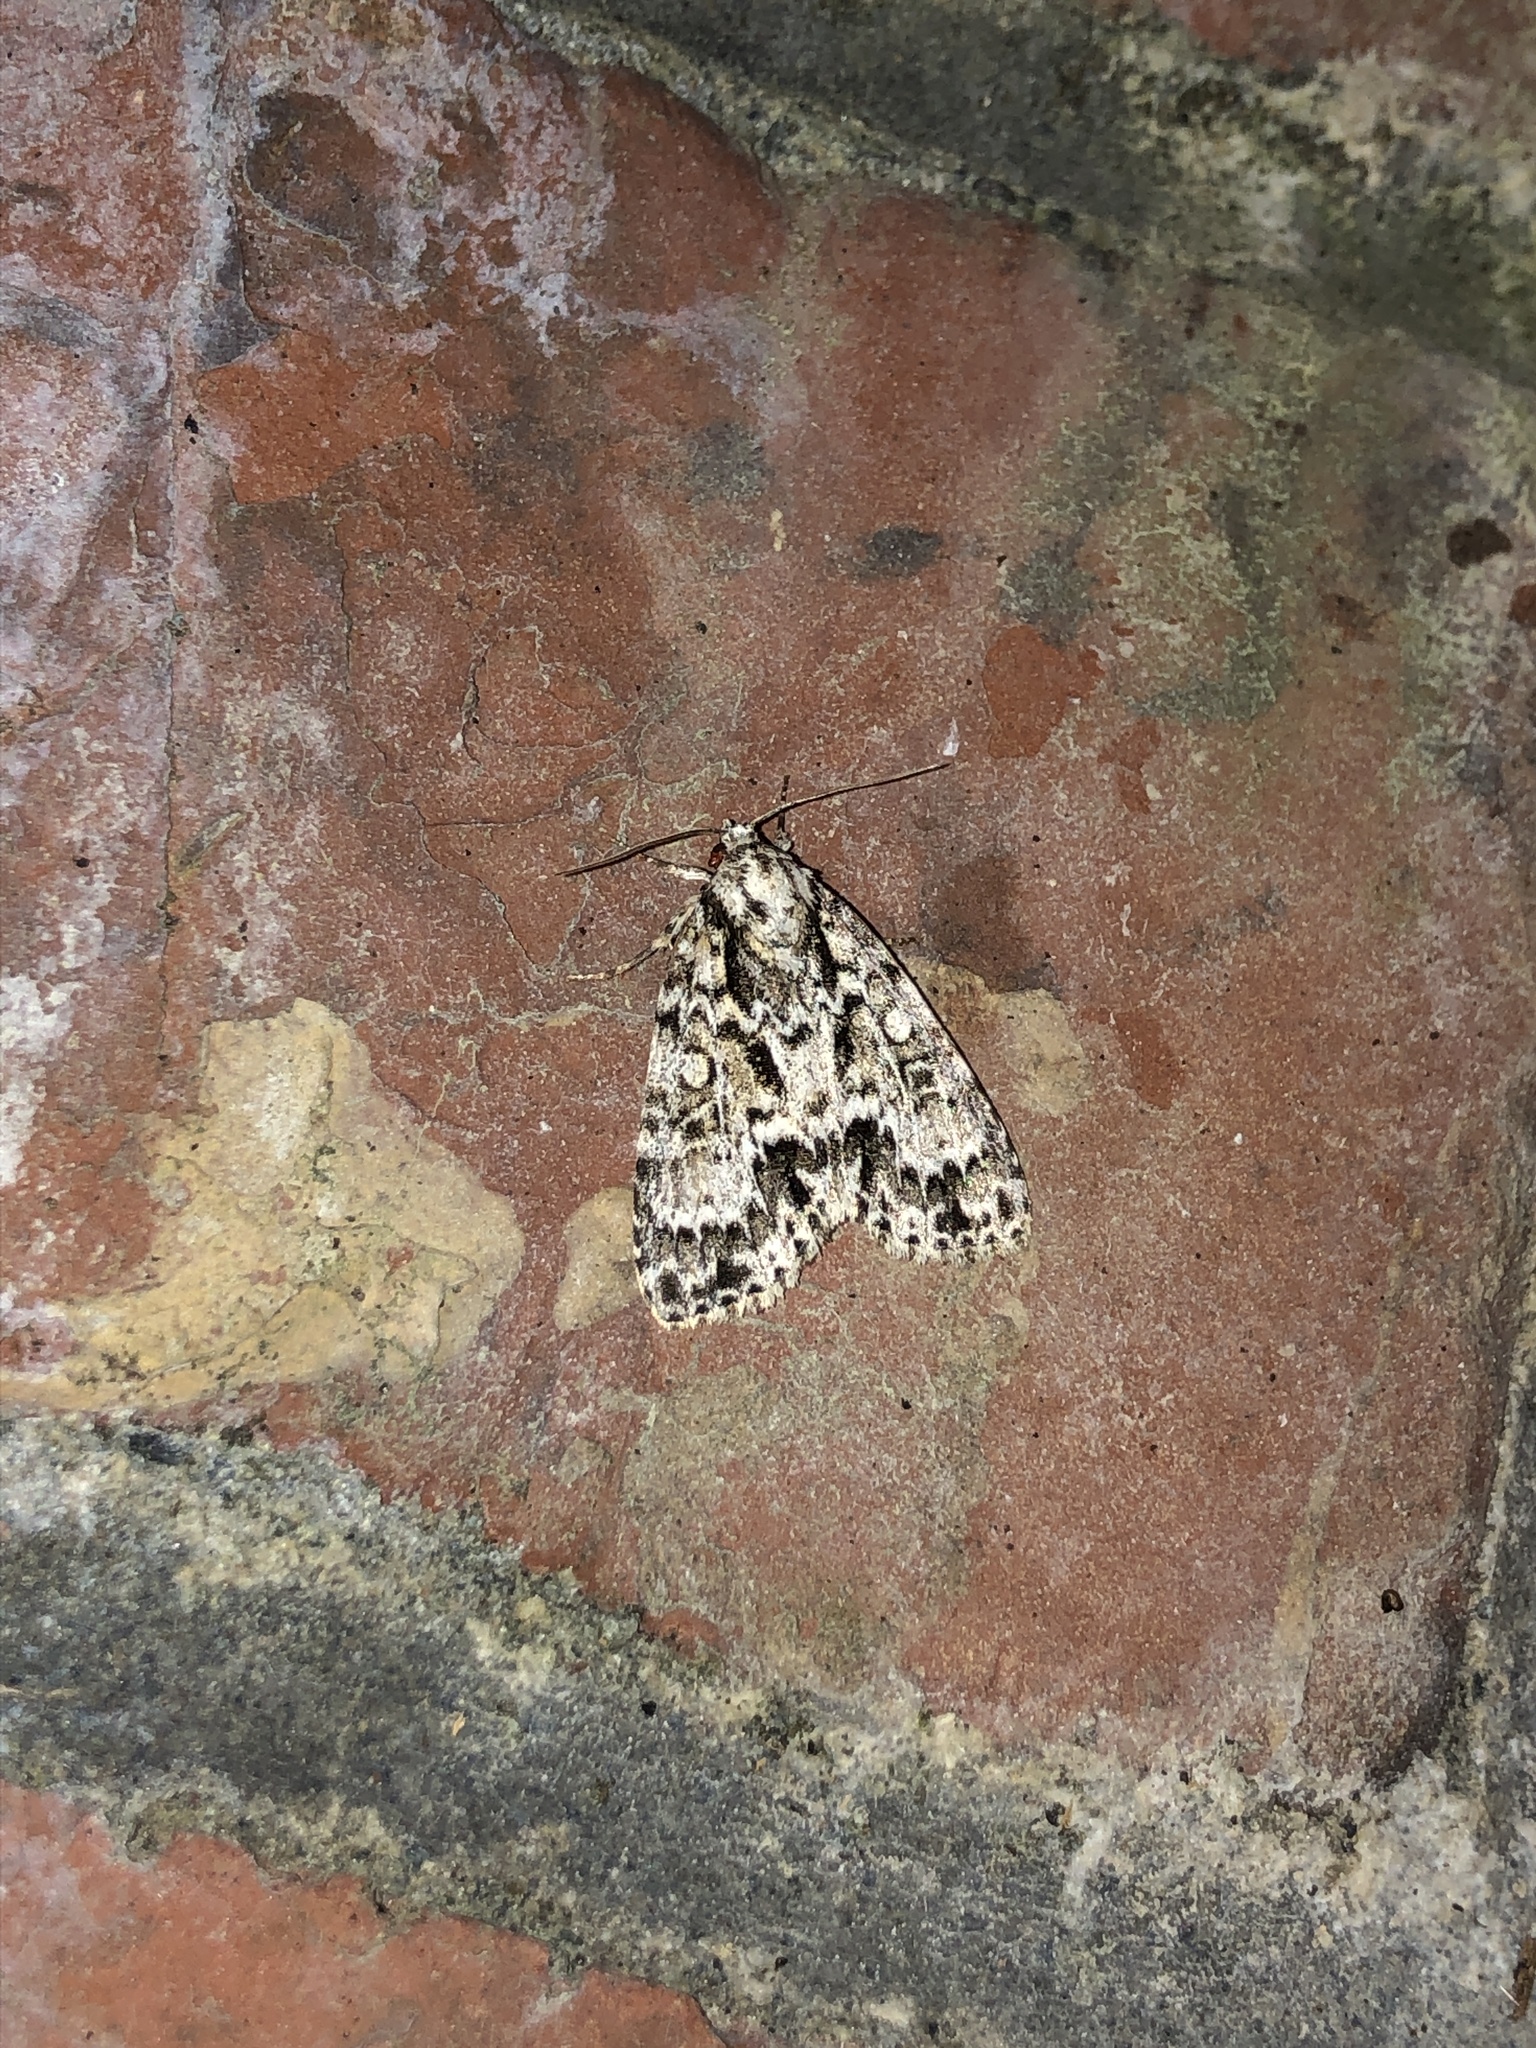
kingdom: Animalia
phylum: Arthropoda
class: Insecta
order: Lepidoptera
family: Noctuidae
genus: Acronicta
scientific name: Acronicta fragilis
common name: Fragile dagger
